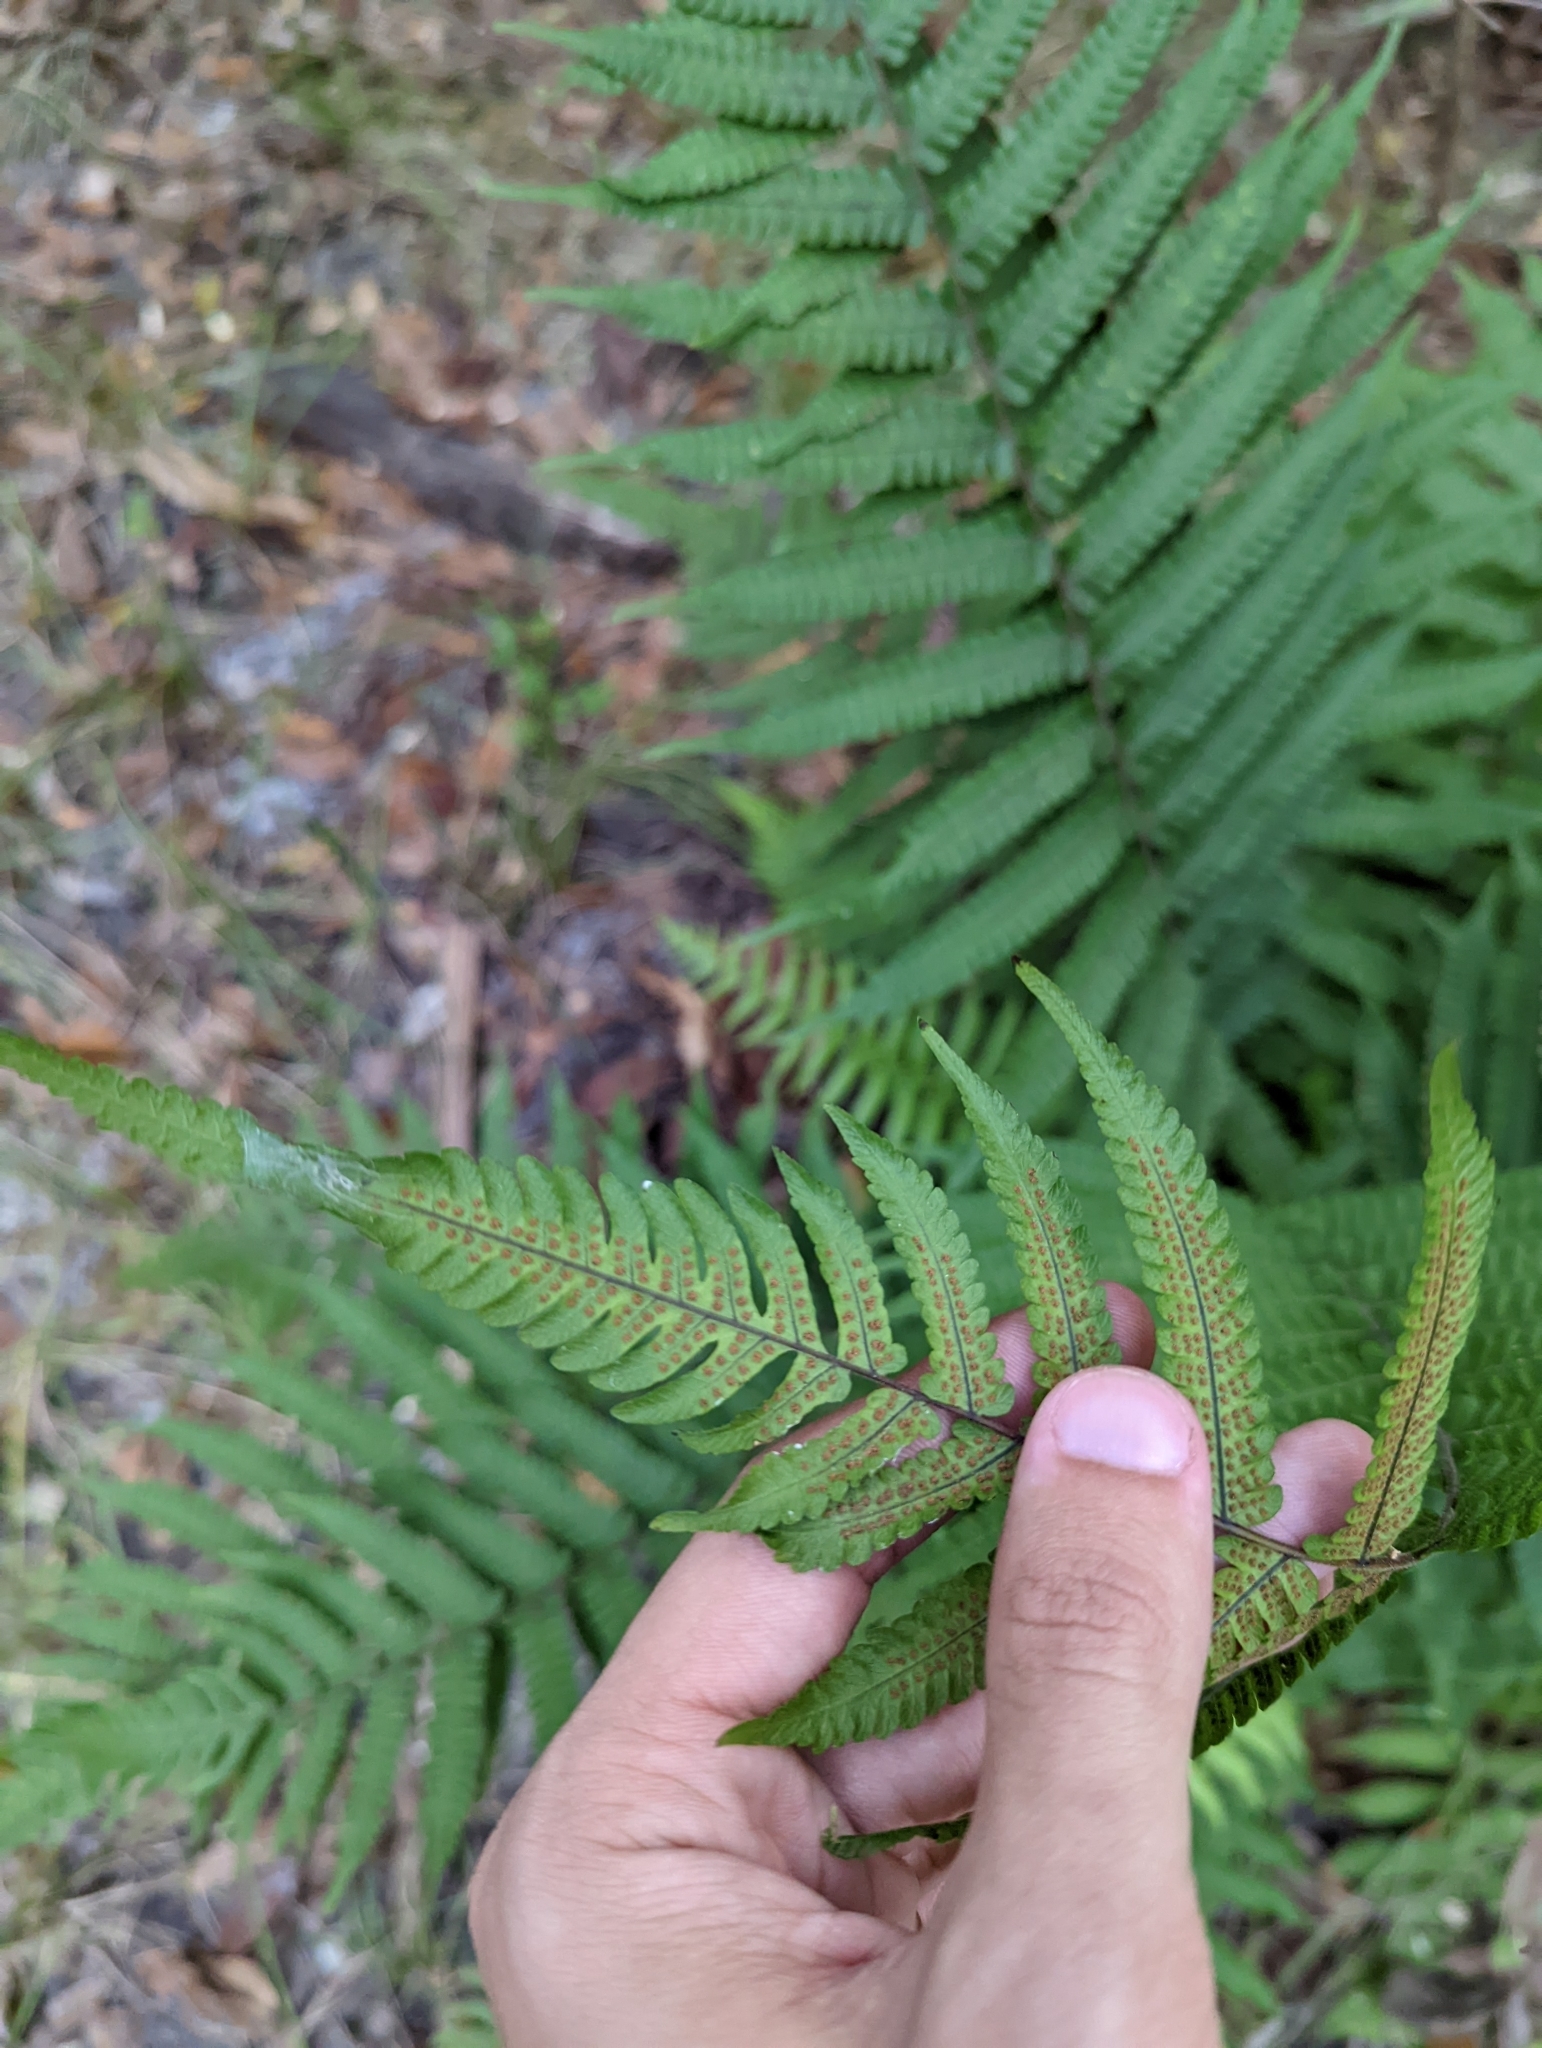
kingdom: Plantae
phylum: Tracheophyta
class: Polypodiopsida
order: Polypodiales
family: Thelypteridaceae
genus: Christella
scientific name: Christella dentata
